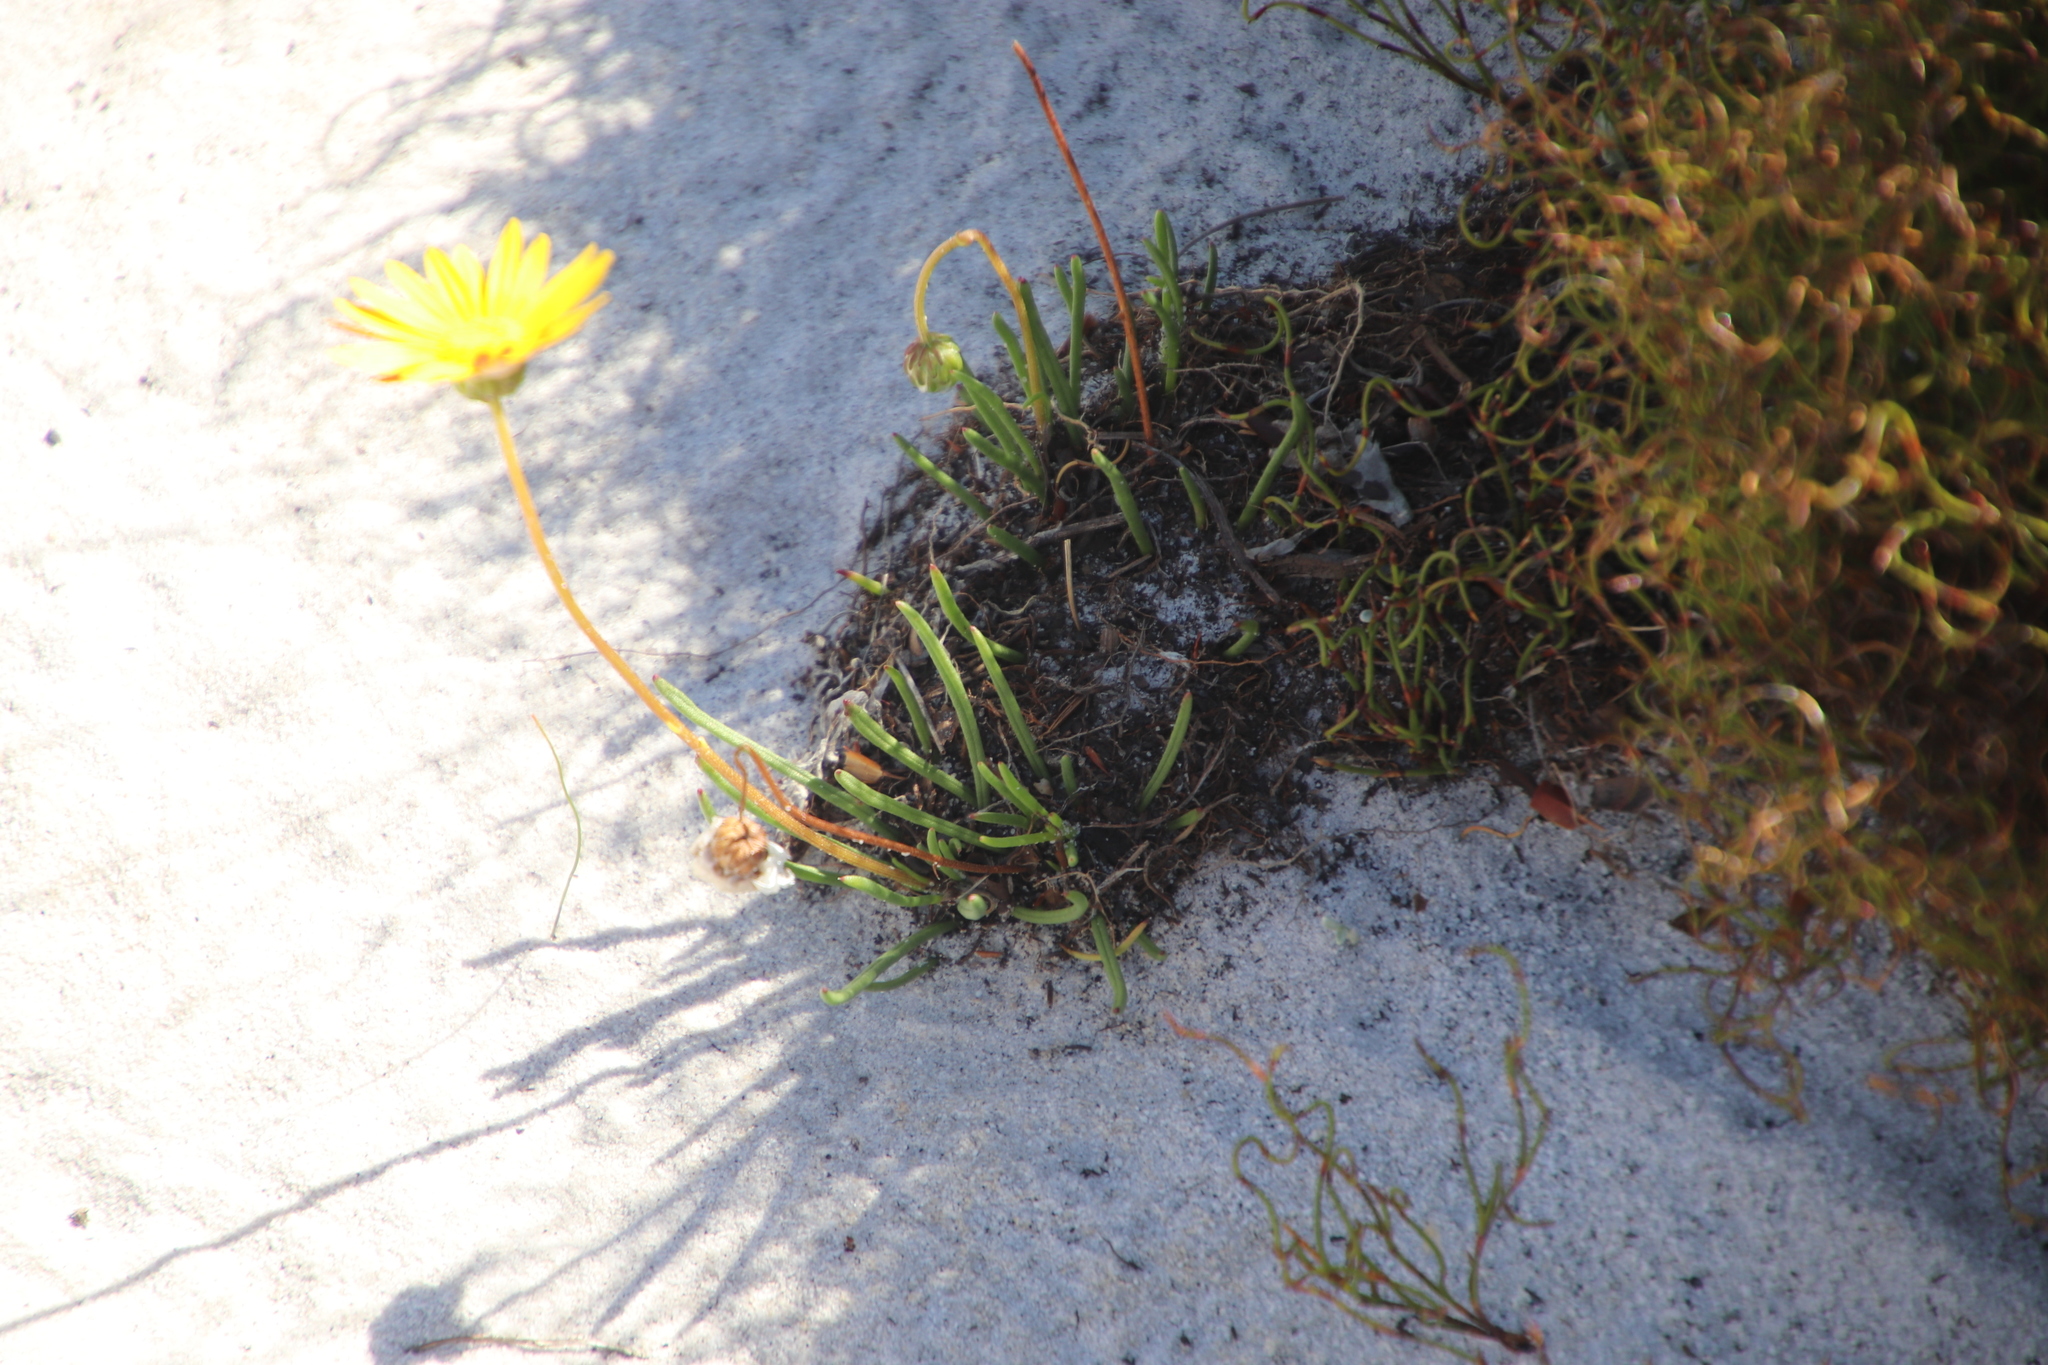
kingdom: Plantae
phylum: Tracheophyta
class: Magnoliopsida
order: Asterales
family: Asteraceae
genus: Ursinia
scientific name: Ursinia tenuifolia
